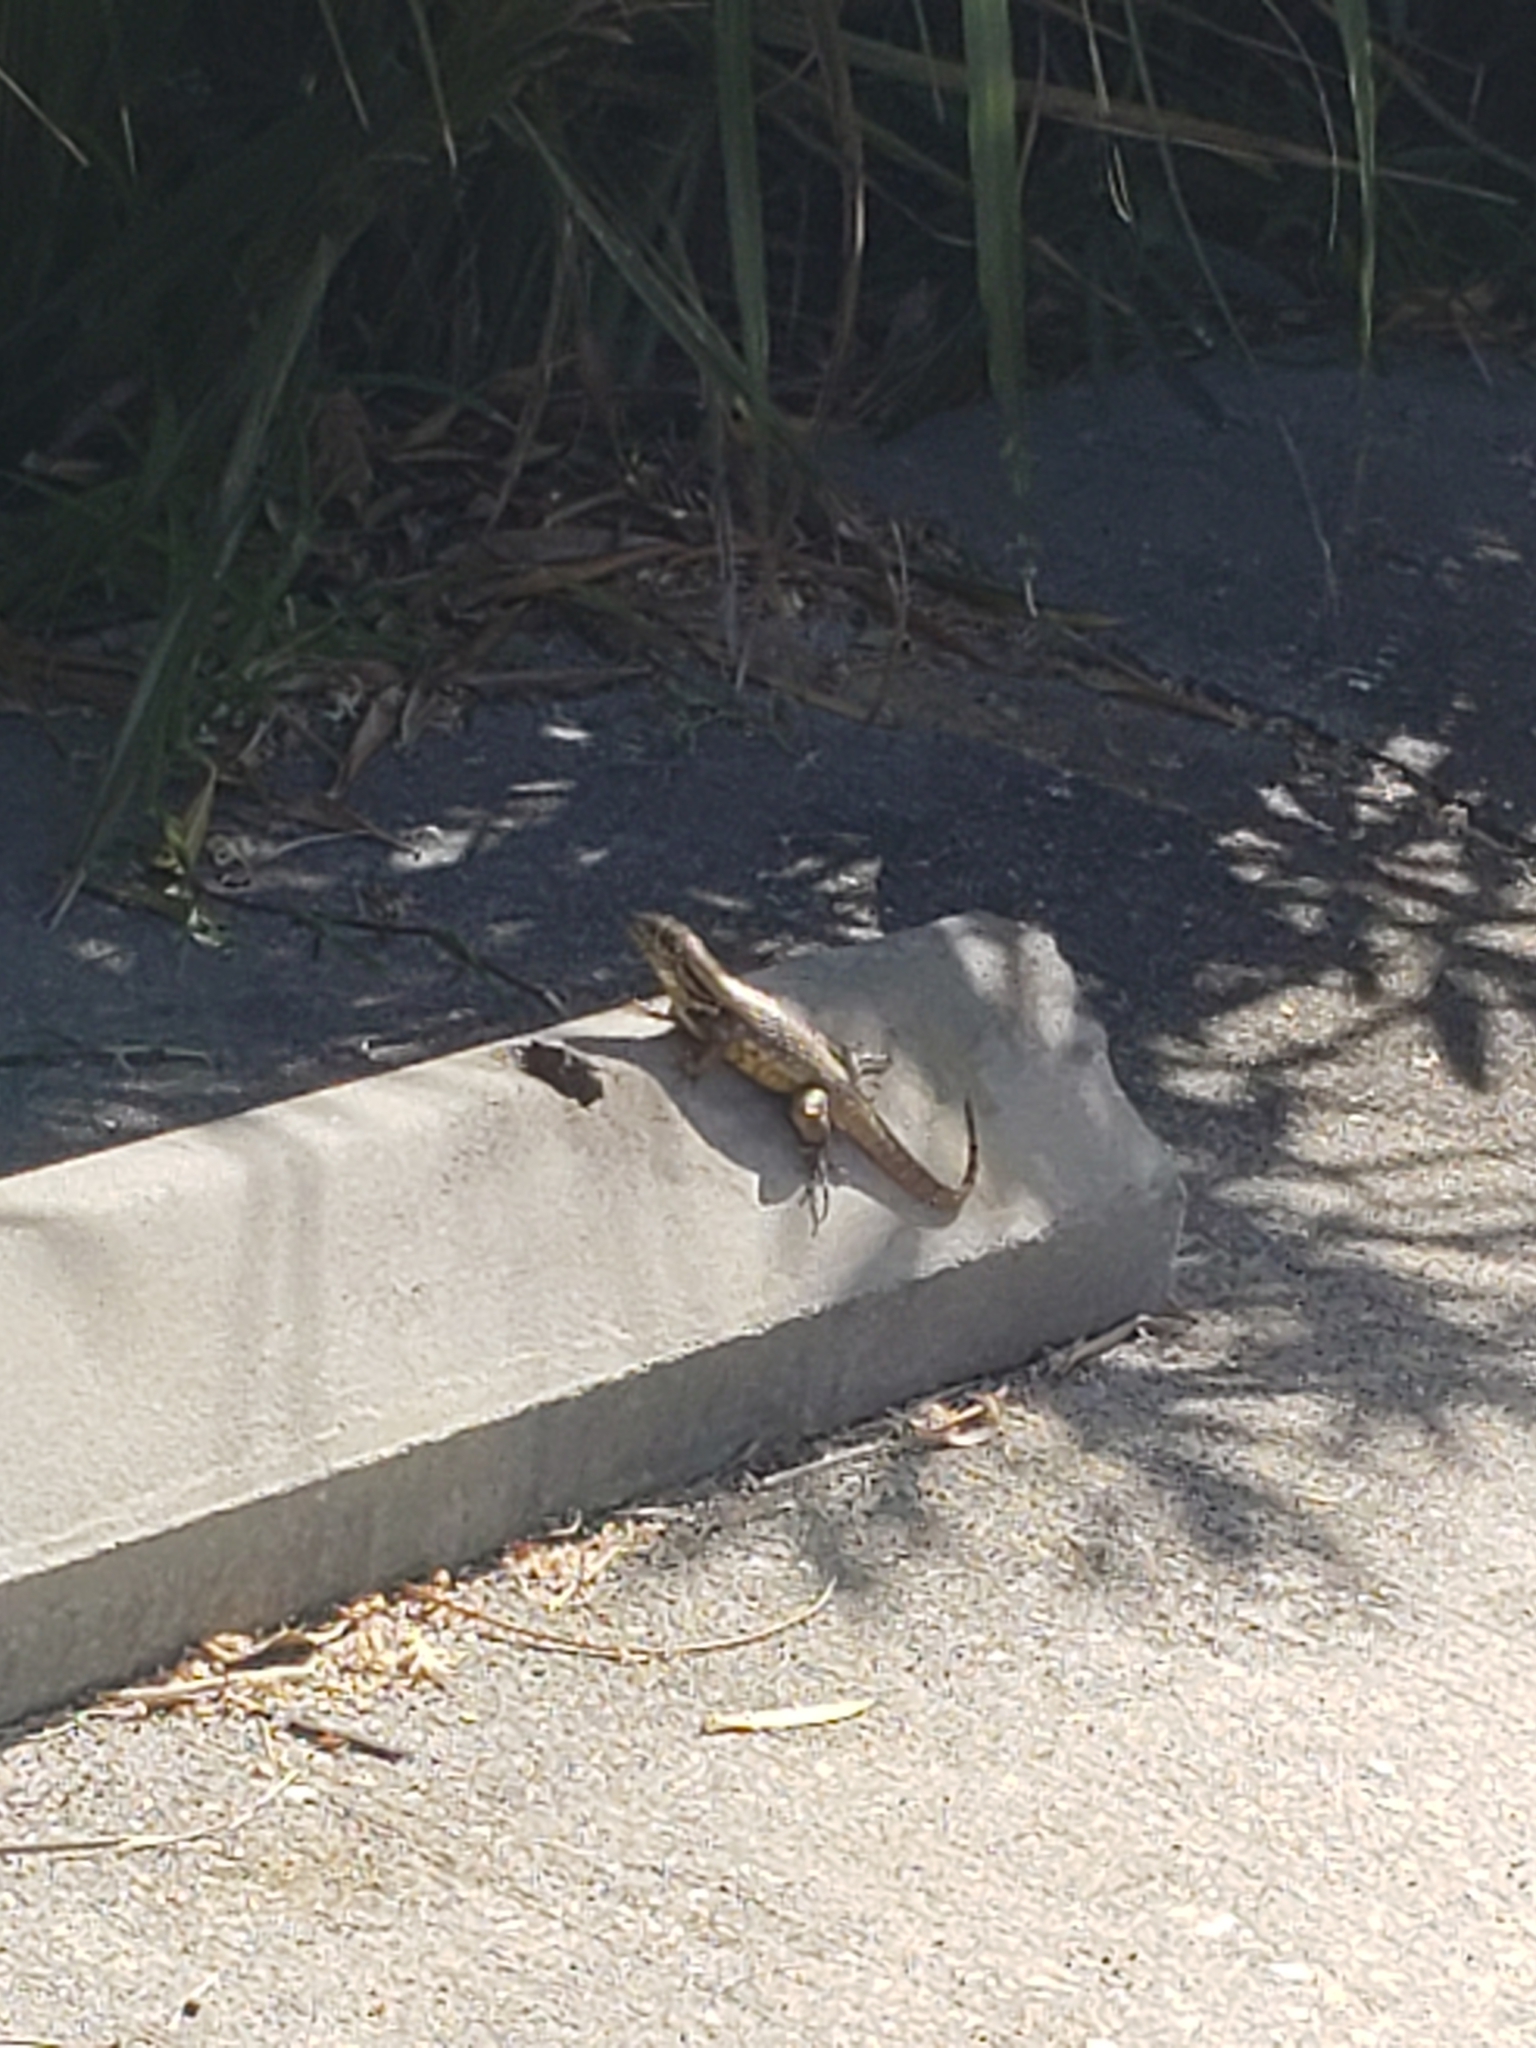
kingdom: Animalia
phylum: Chordata
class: Squamata
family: Leiocephalidae
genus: Leiocephalus
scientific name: Leiocephalus carinatus
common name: Northern curly-tailed lizard
